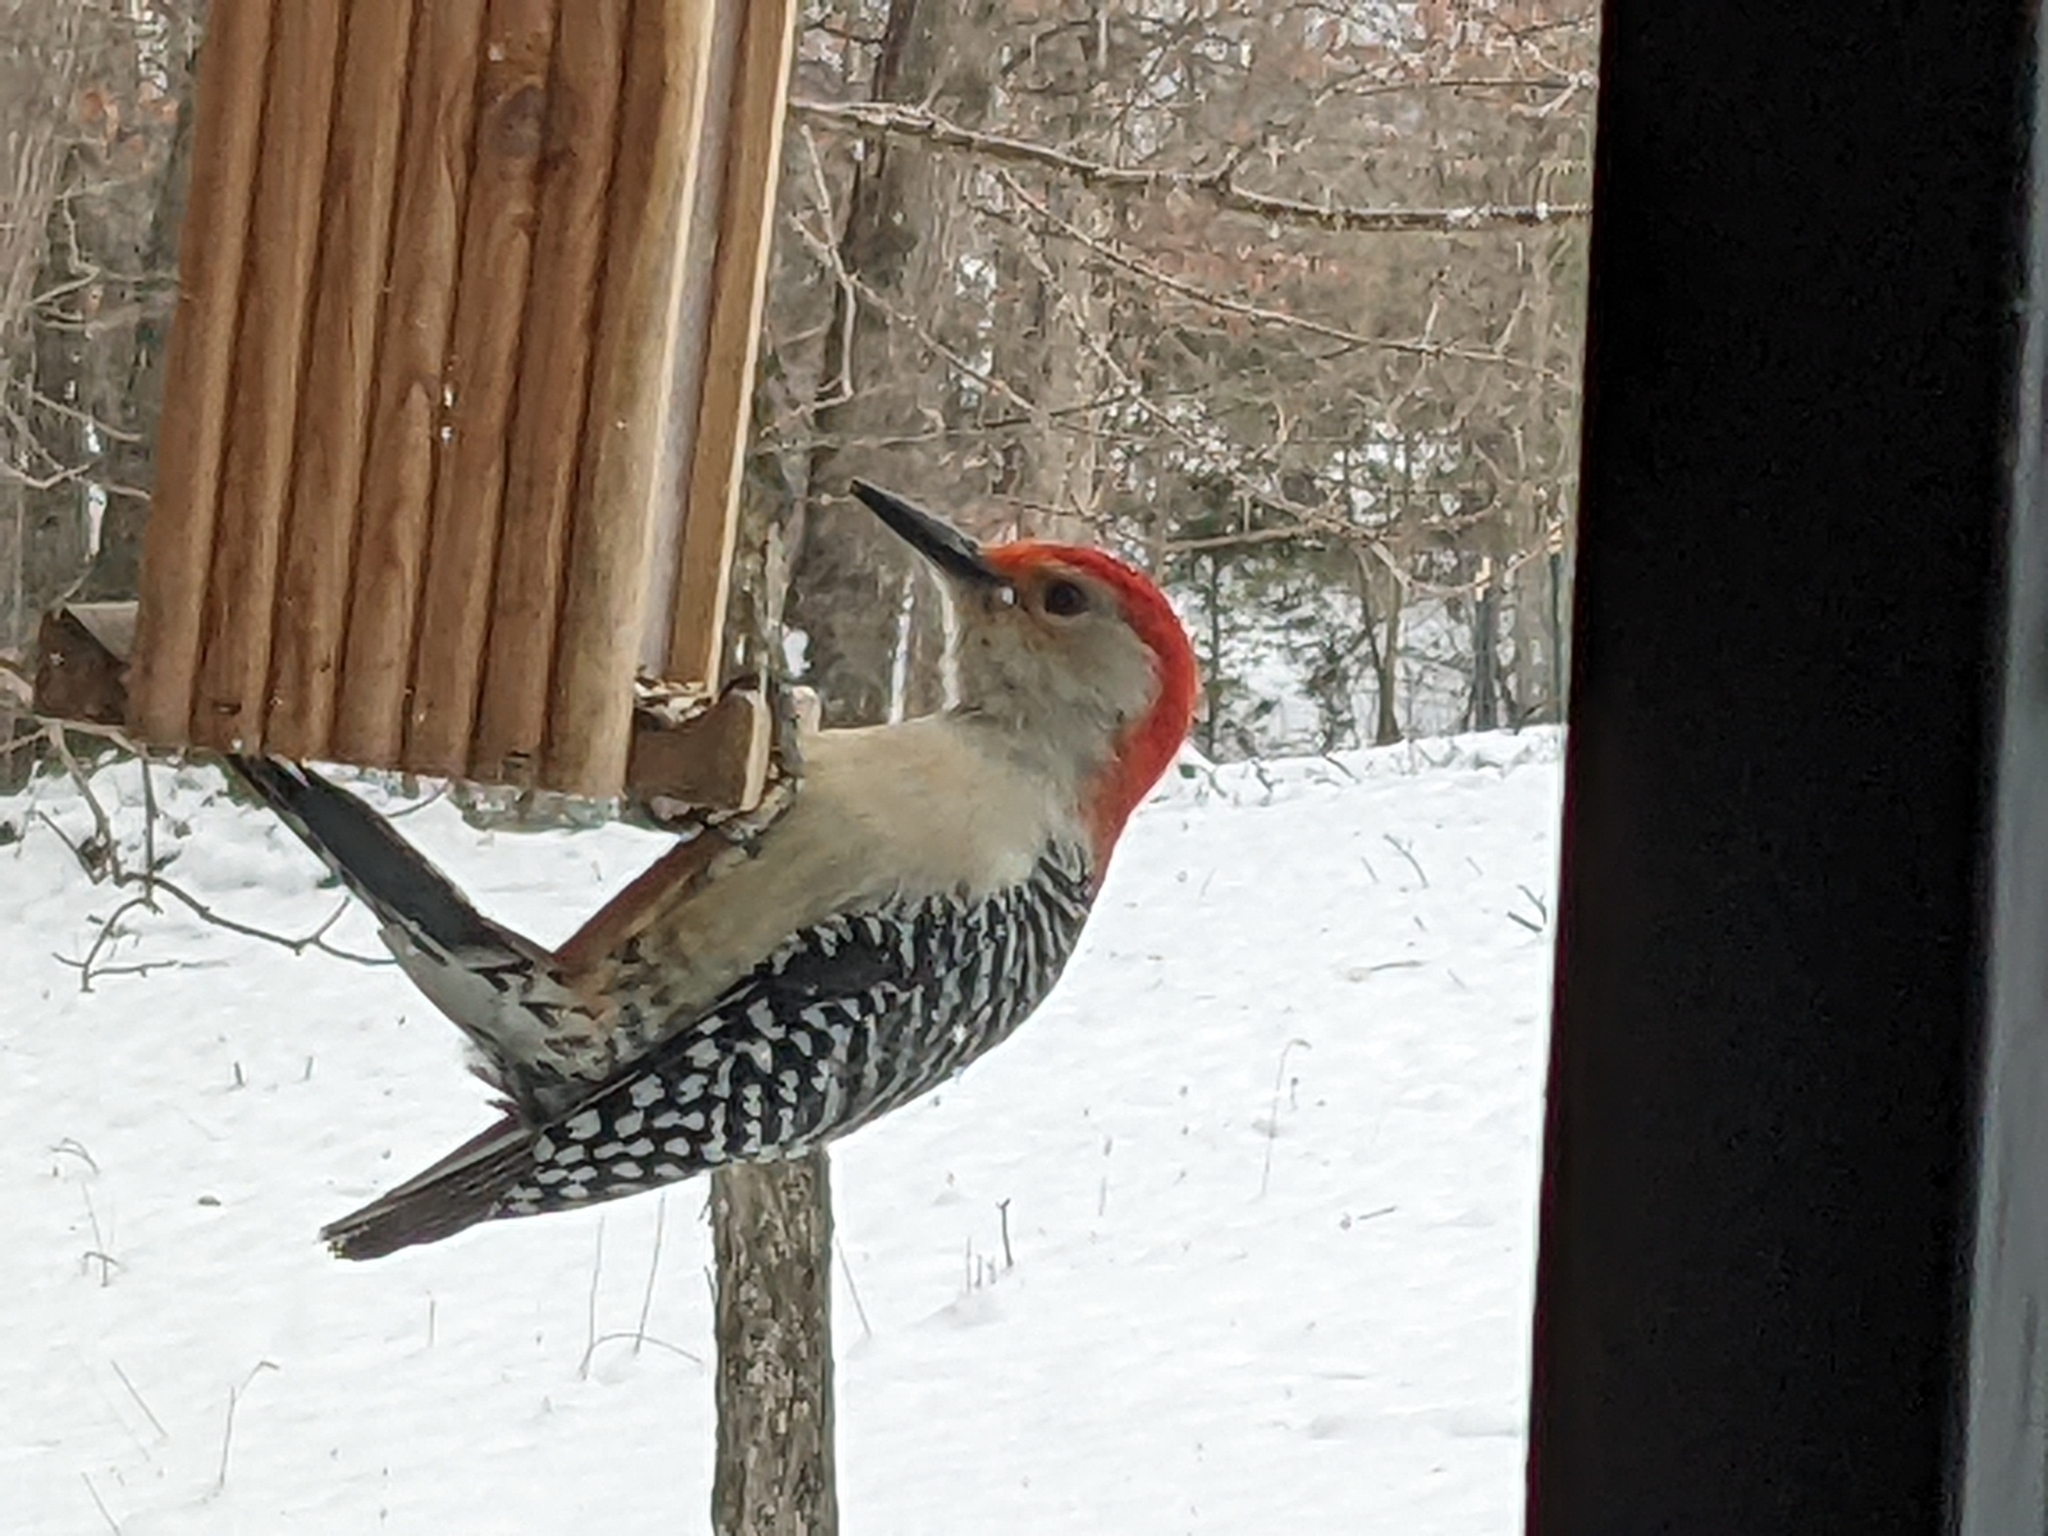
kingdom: Animalia
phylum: Chordata
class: Aves
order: Piciformes
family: Picidae
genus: Melanerpes
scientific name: Melanerpes carolinus
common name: Red-bellied woodpecker
